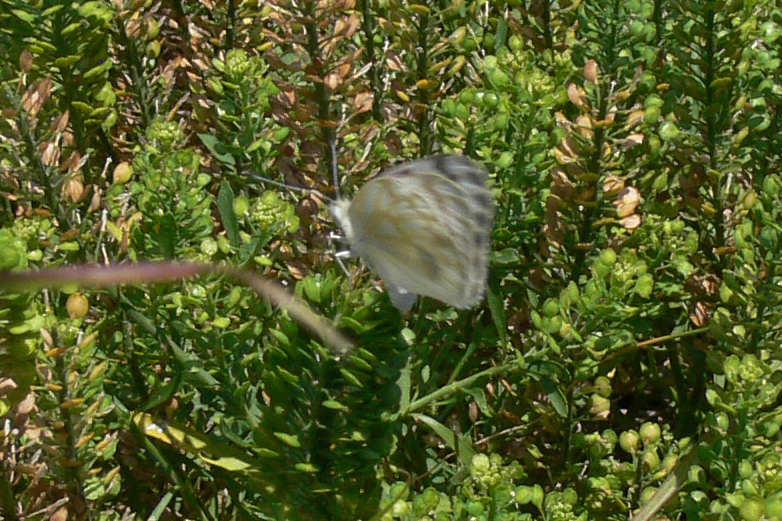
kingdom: Animalia
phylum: Arthropoda
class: Insecta
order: Lepidoptera
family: Pieridae
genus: Pontia
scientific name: Pontia protodice
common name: Checkered white
